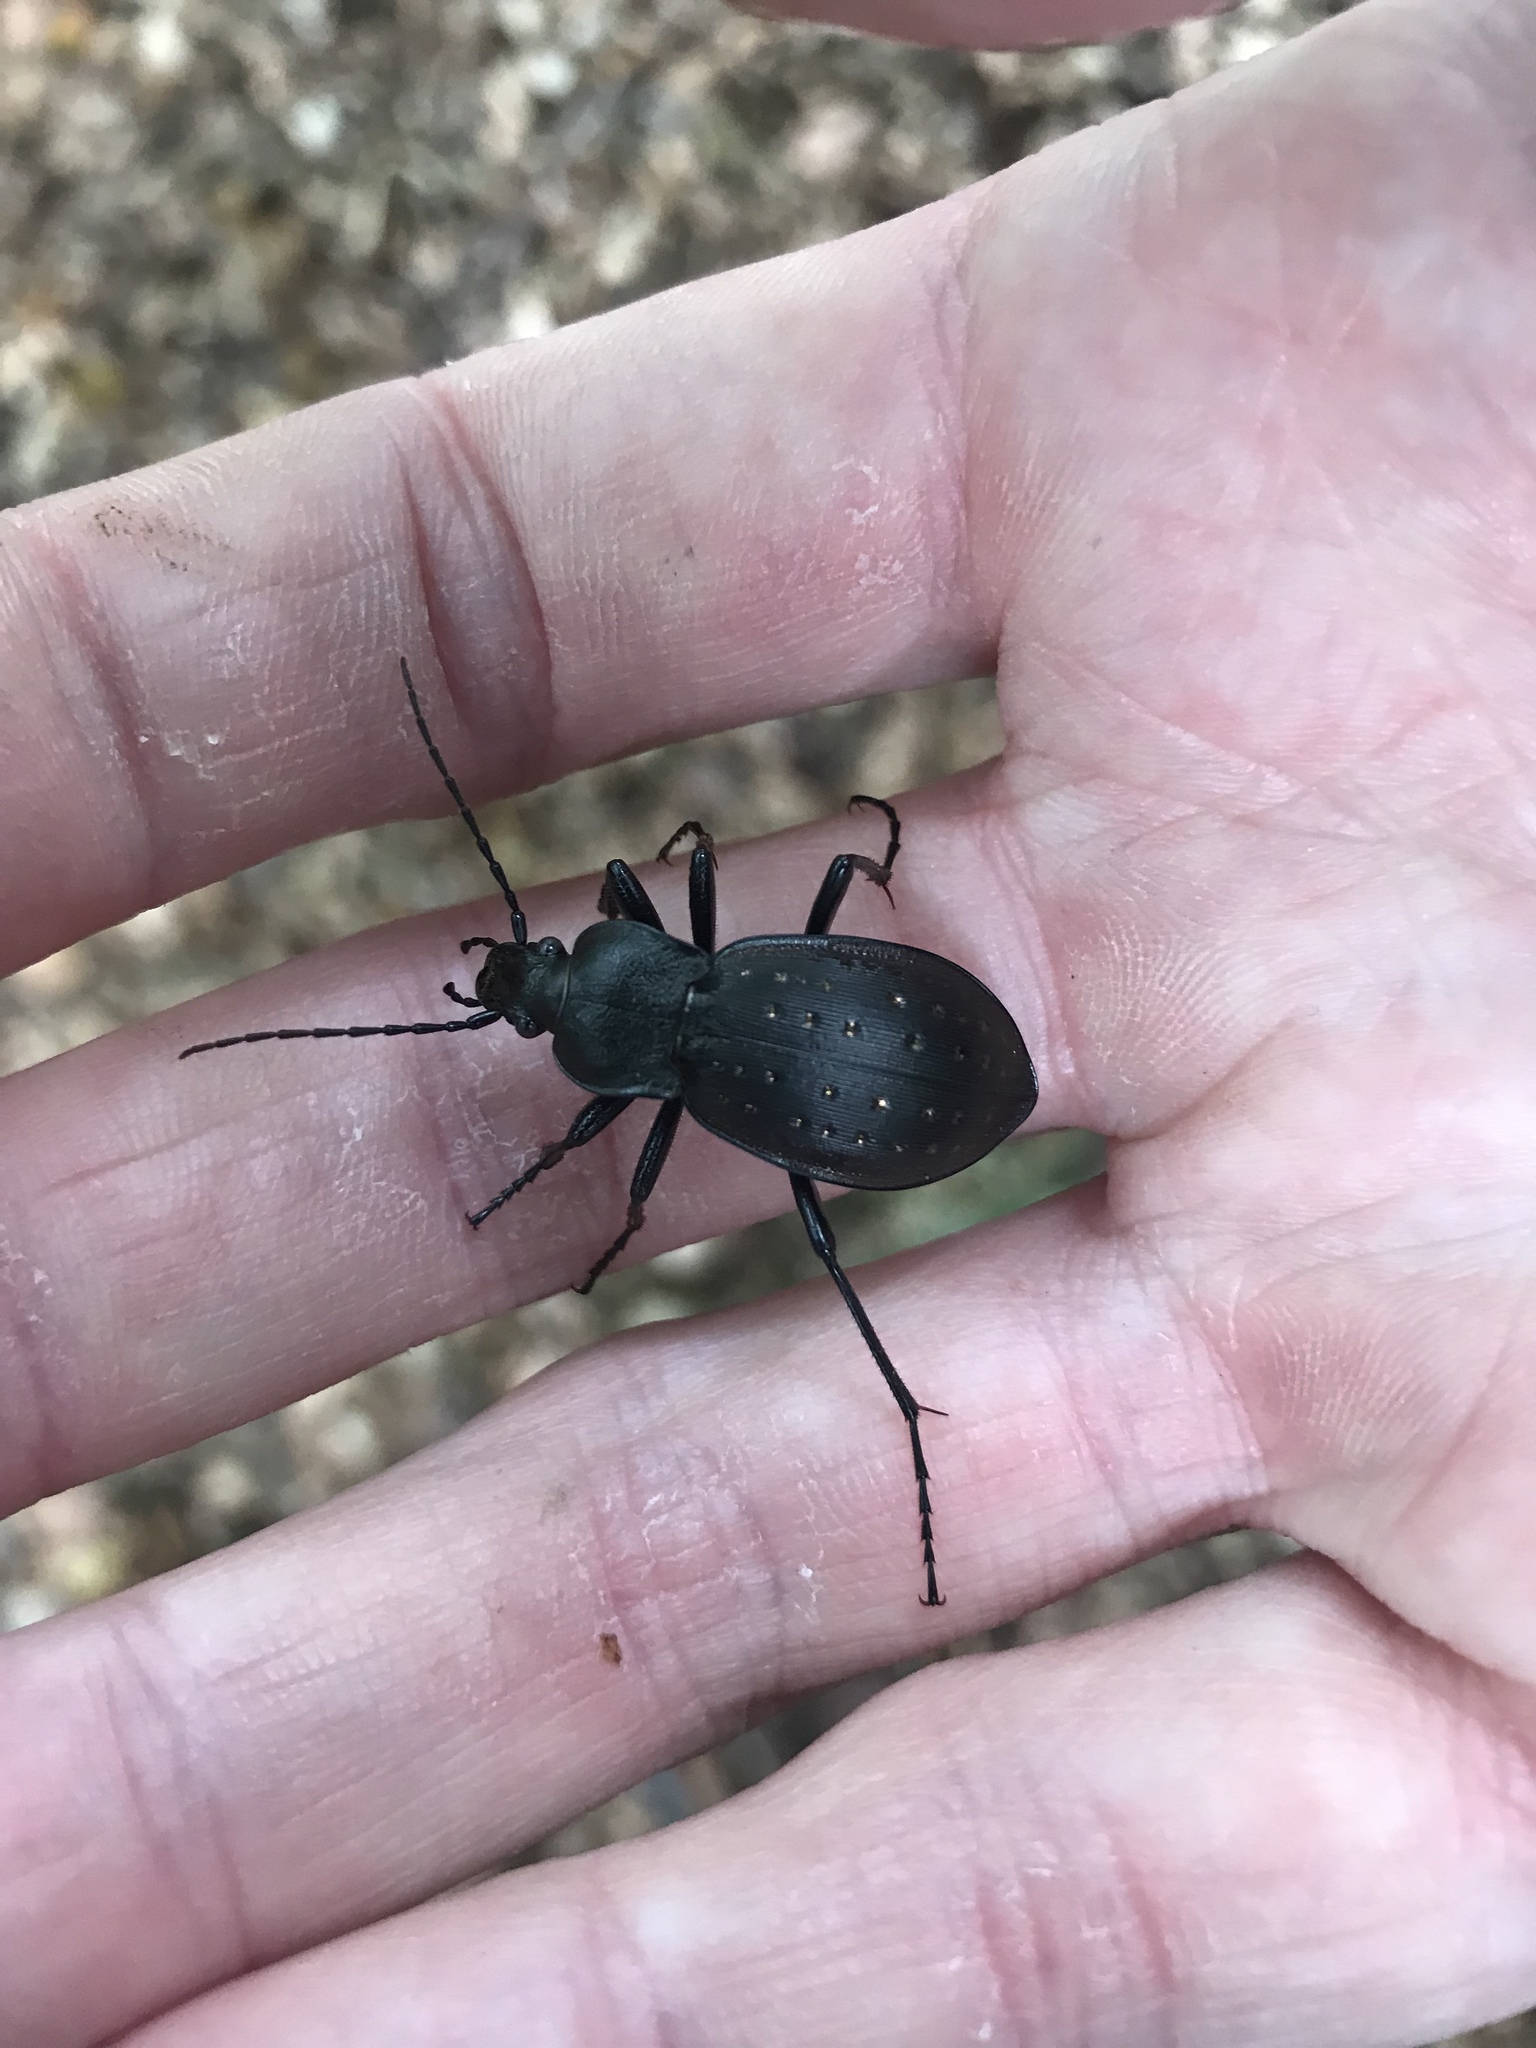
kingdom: Animalia
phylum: Arthropoda
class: Insecta
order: Coleoptera
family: Carabidae
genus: Carabus
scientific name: Carabus hortensis
